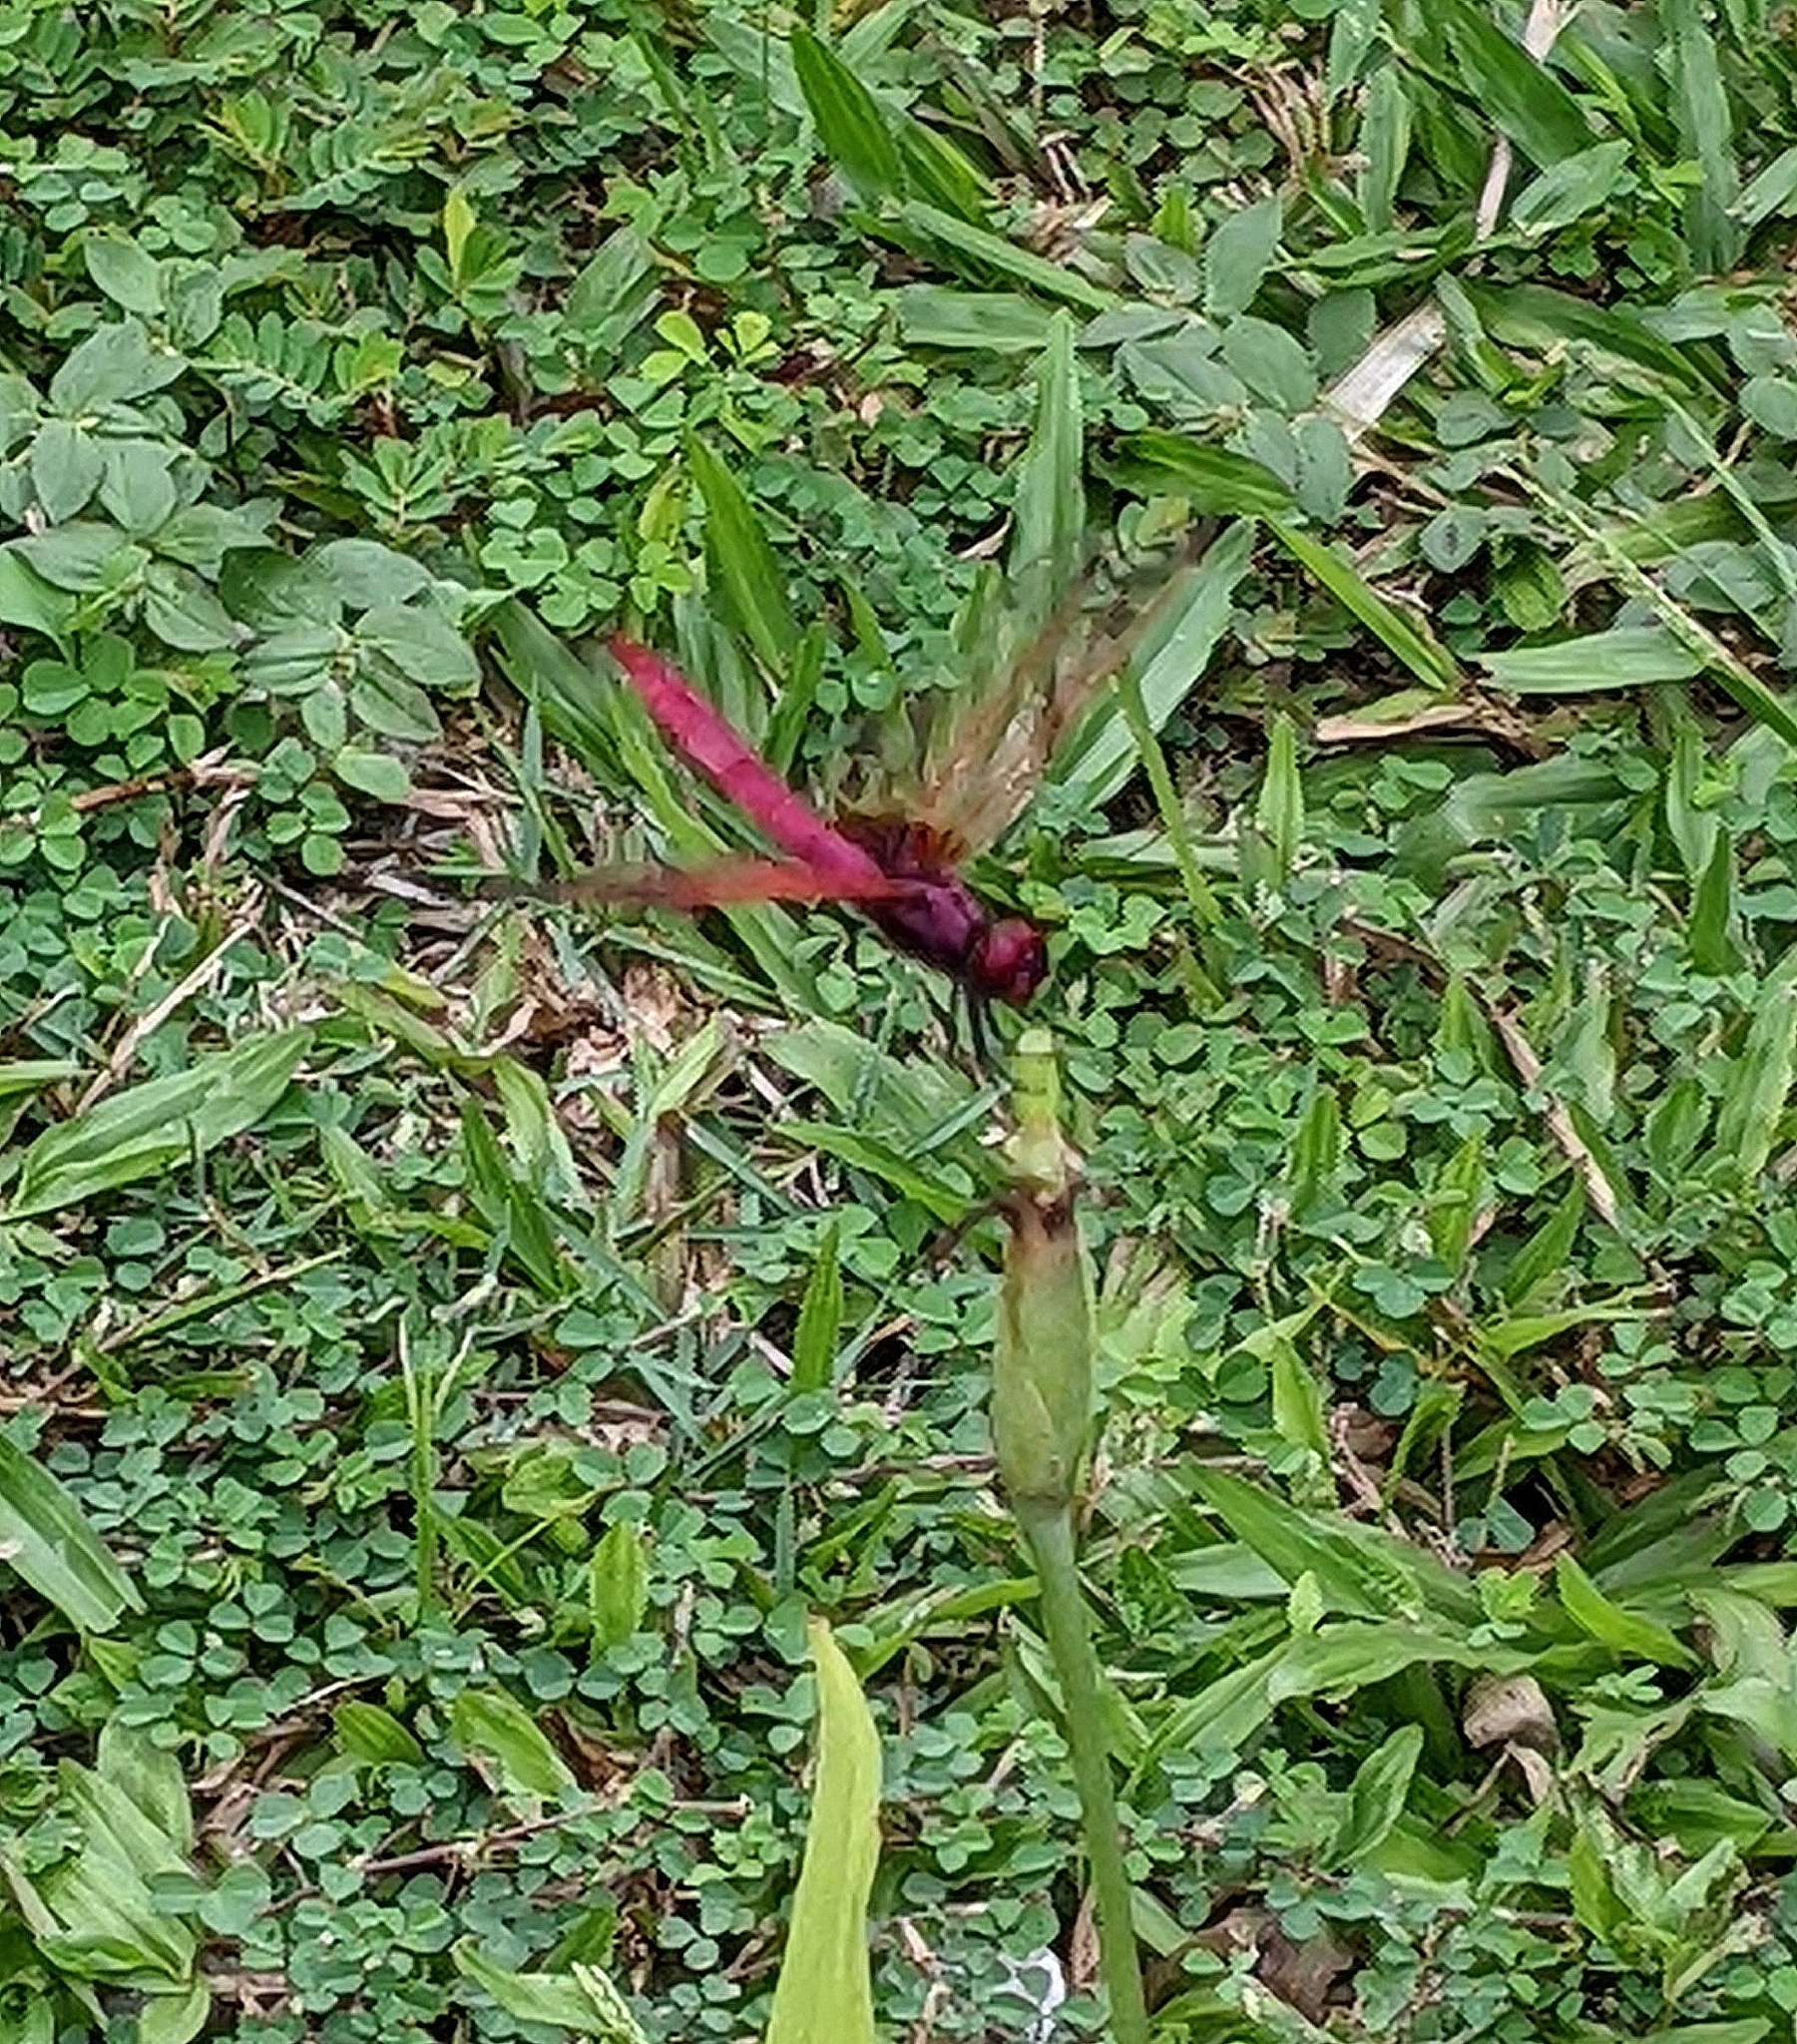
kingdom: Animalia
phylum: Arthropoda
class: Insecta
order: Odonata
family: Libellulidae
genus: Trithemis
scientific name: Trithemis aurora
